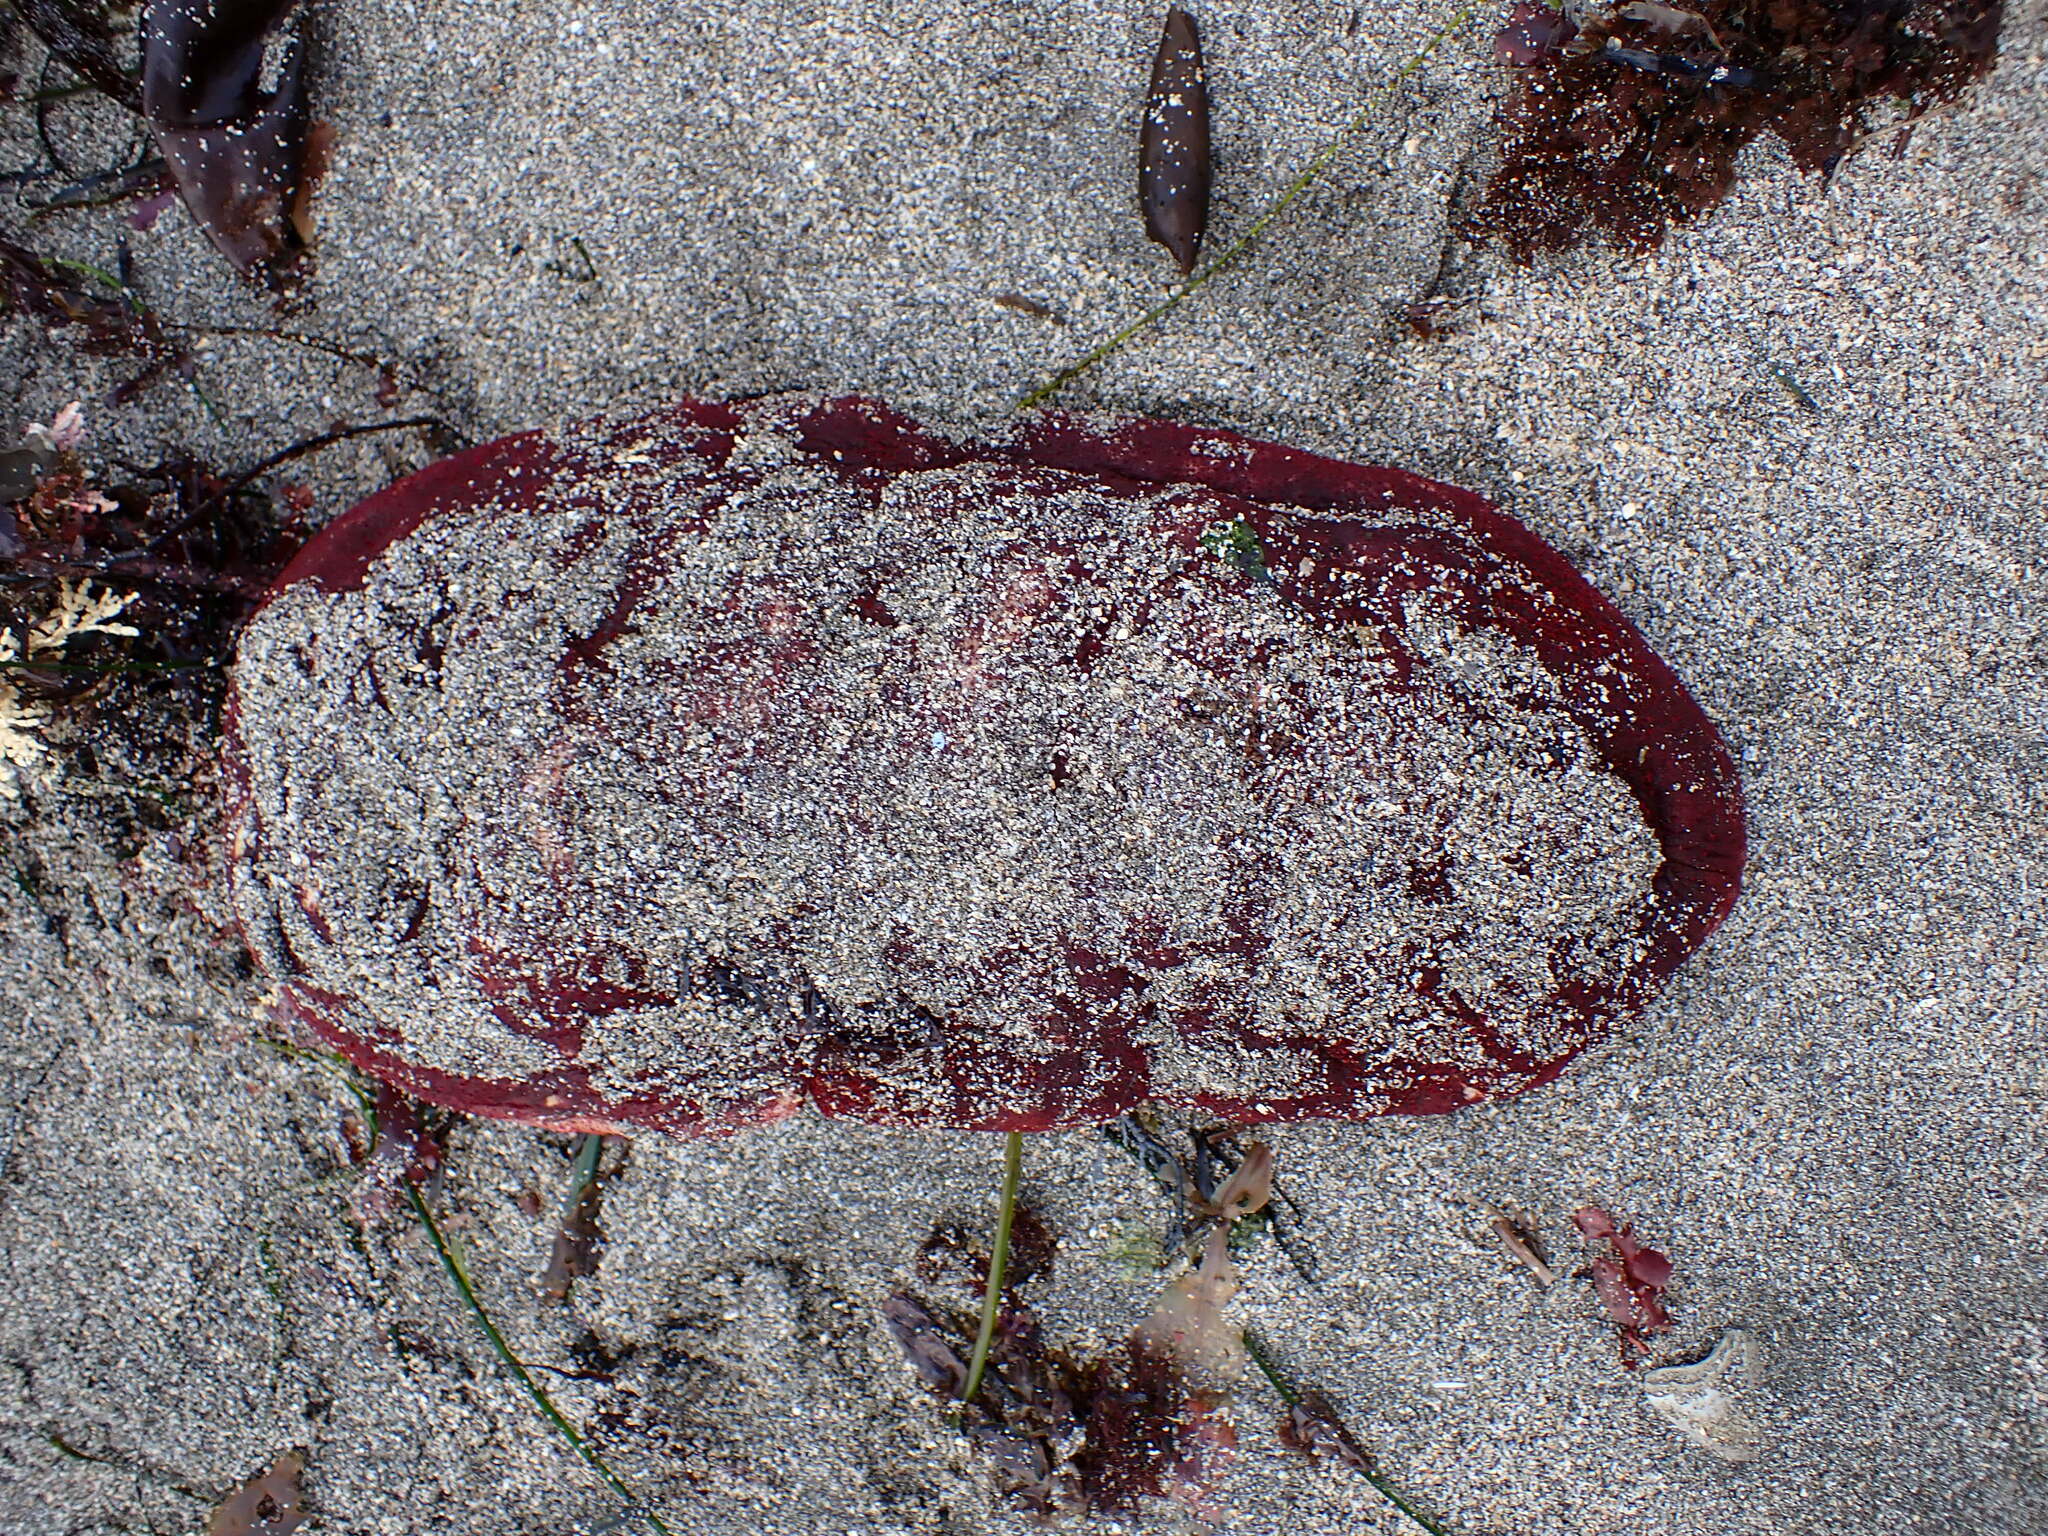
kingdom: Animalia
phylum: Mollusca
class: Polyplacophora
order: Chitonida
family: Acanthochitonidae
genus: Cryptochiton
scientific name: Cryptochiton stelleri
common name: Giant pacific chiton
